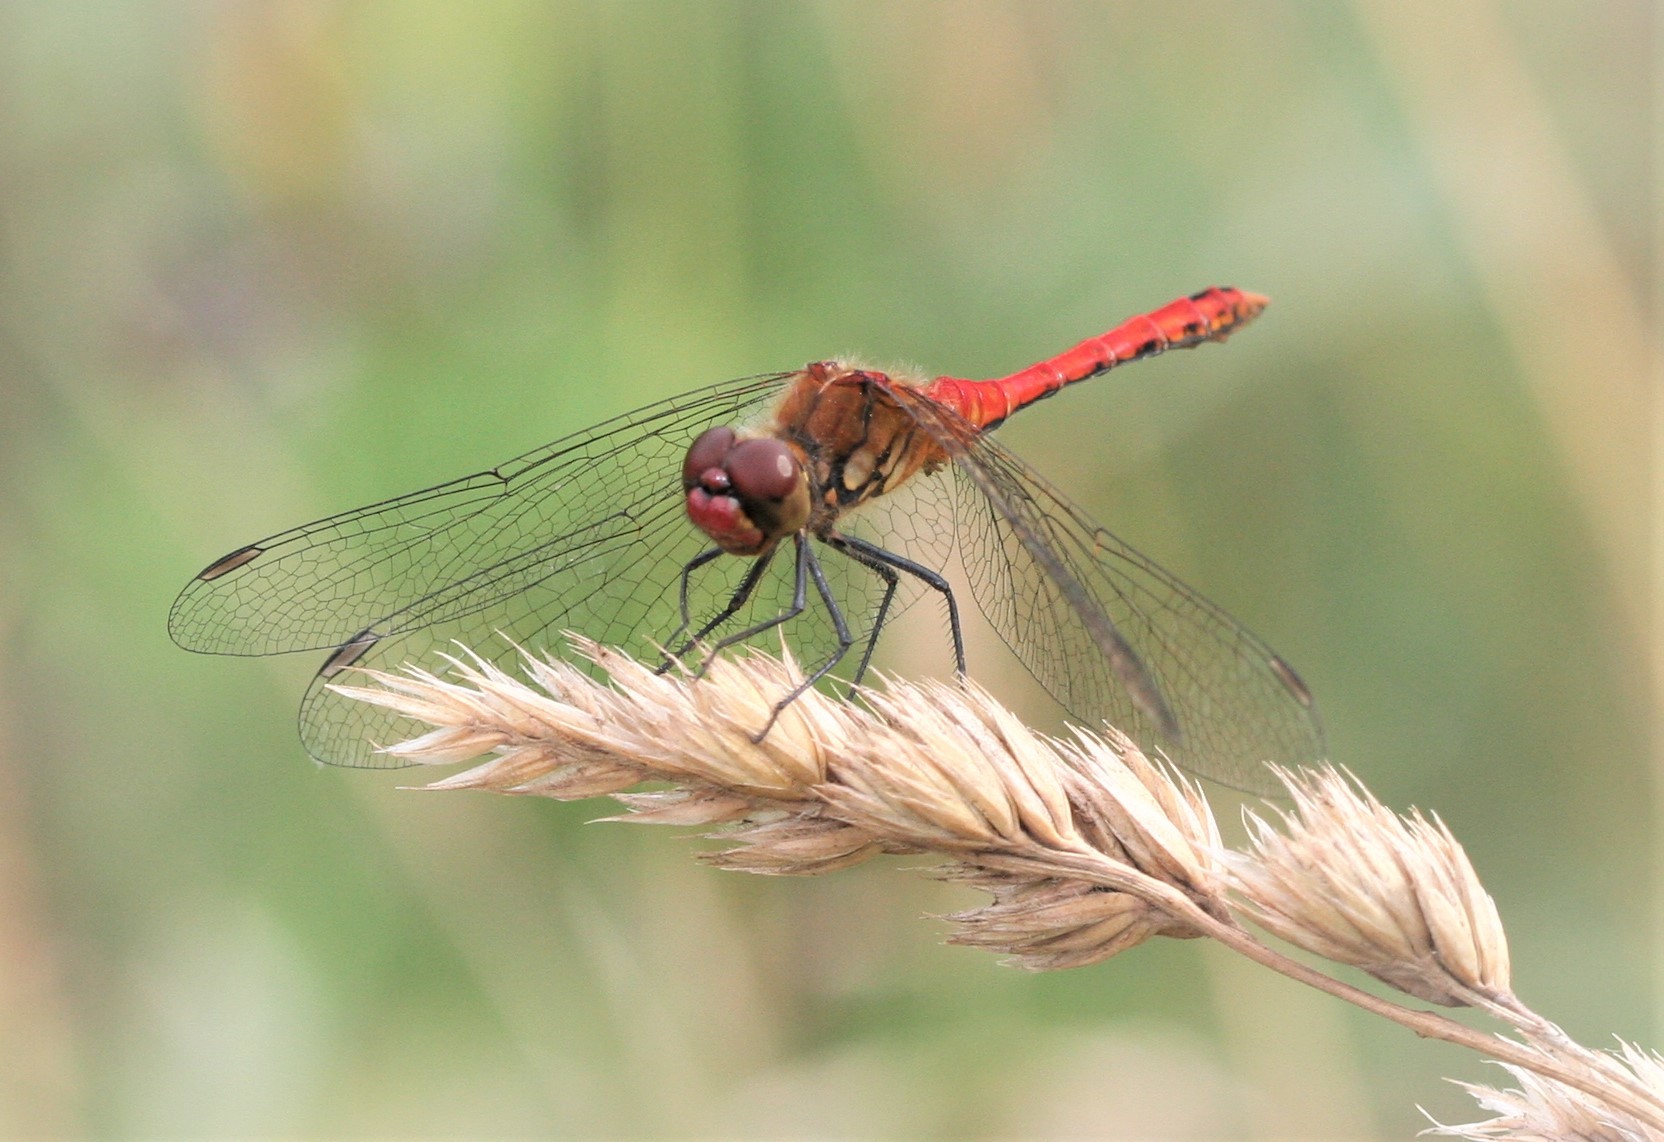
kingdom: Animalia
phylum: Arthropoda
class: Insecta
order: Odonata
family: Libellulidae
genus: Sympetrum
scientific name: Sympetrum sanguineum
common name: Ruddy darter
